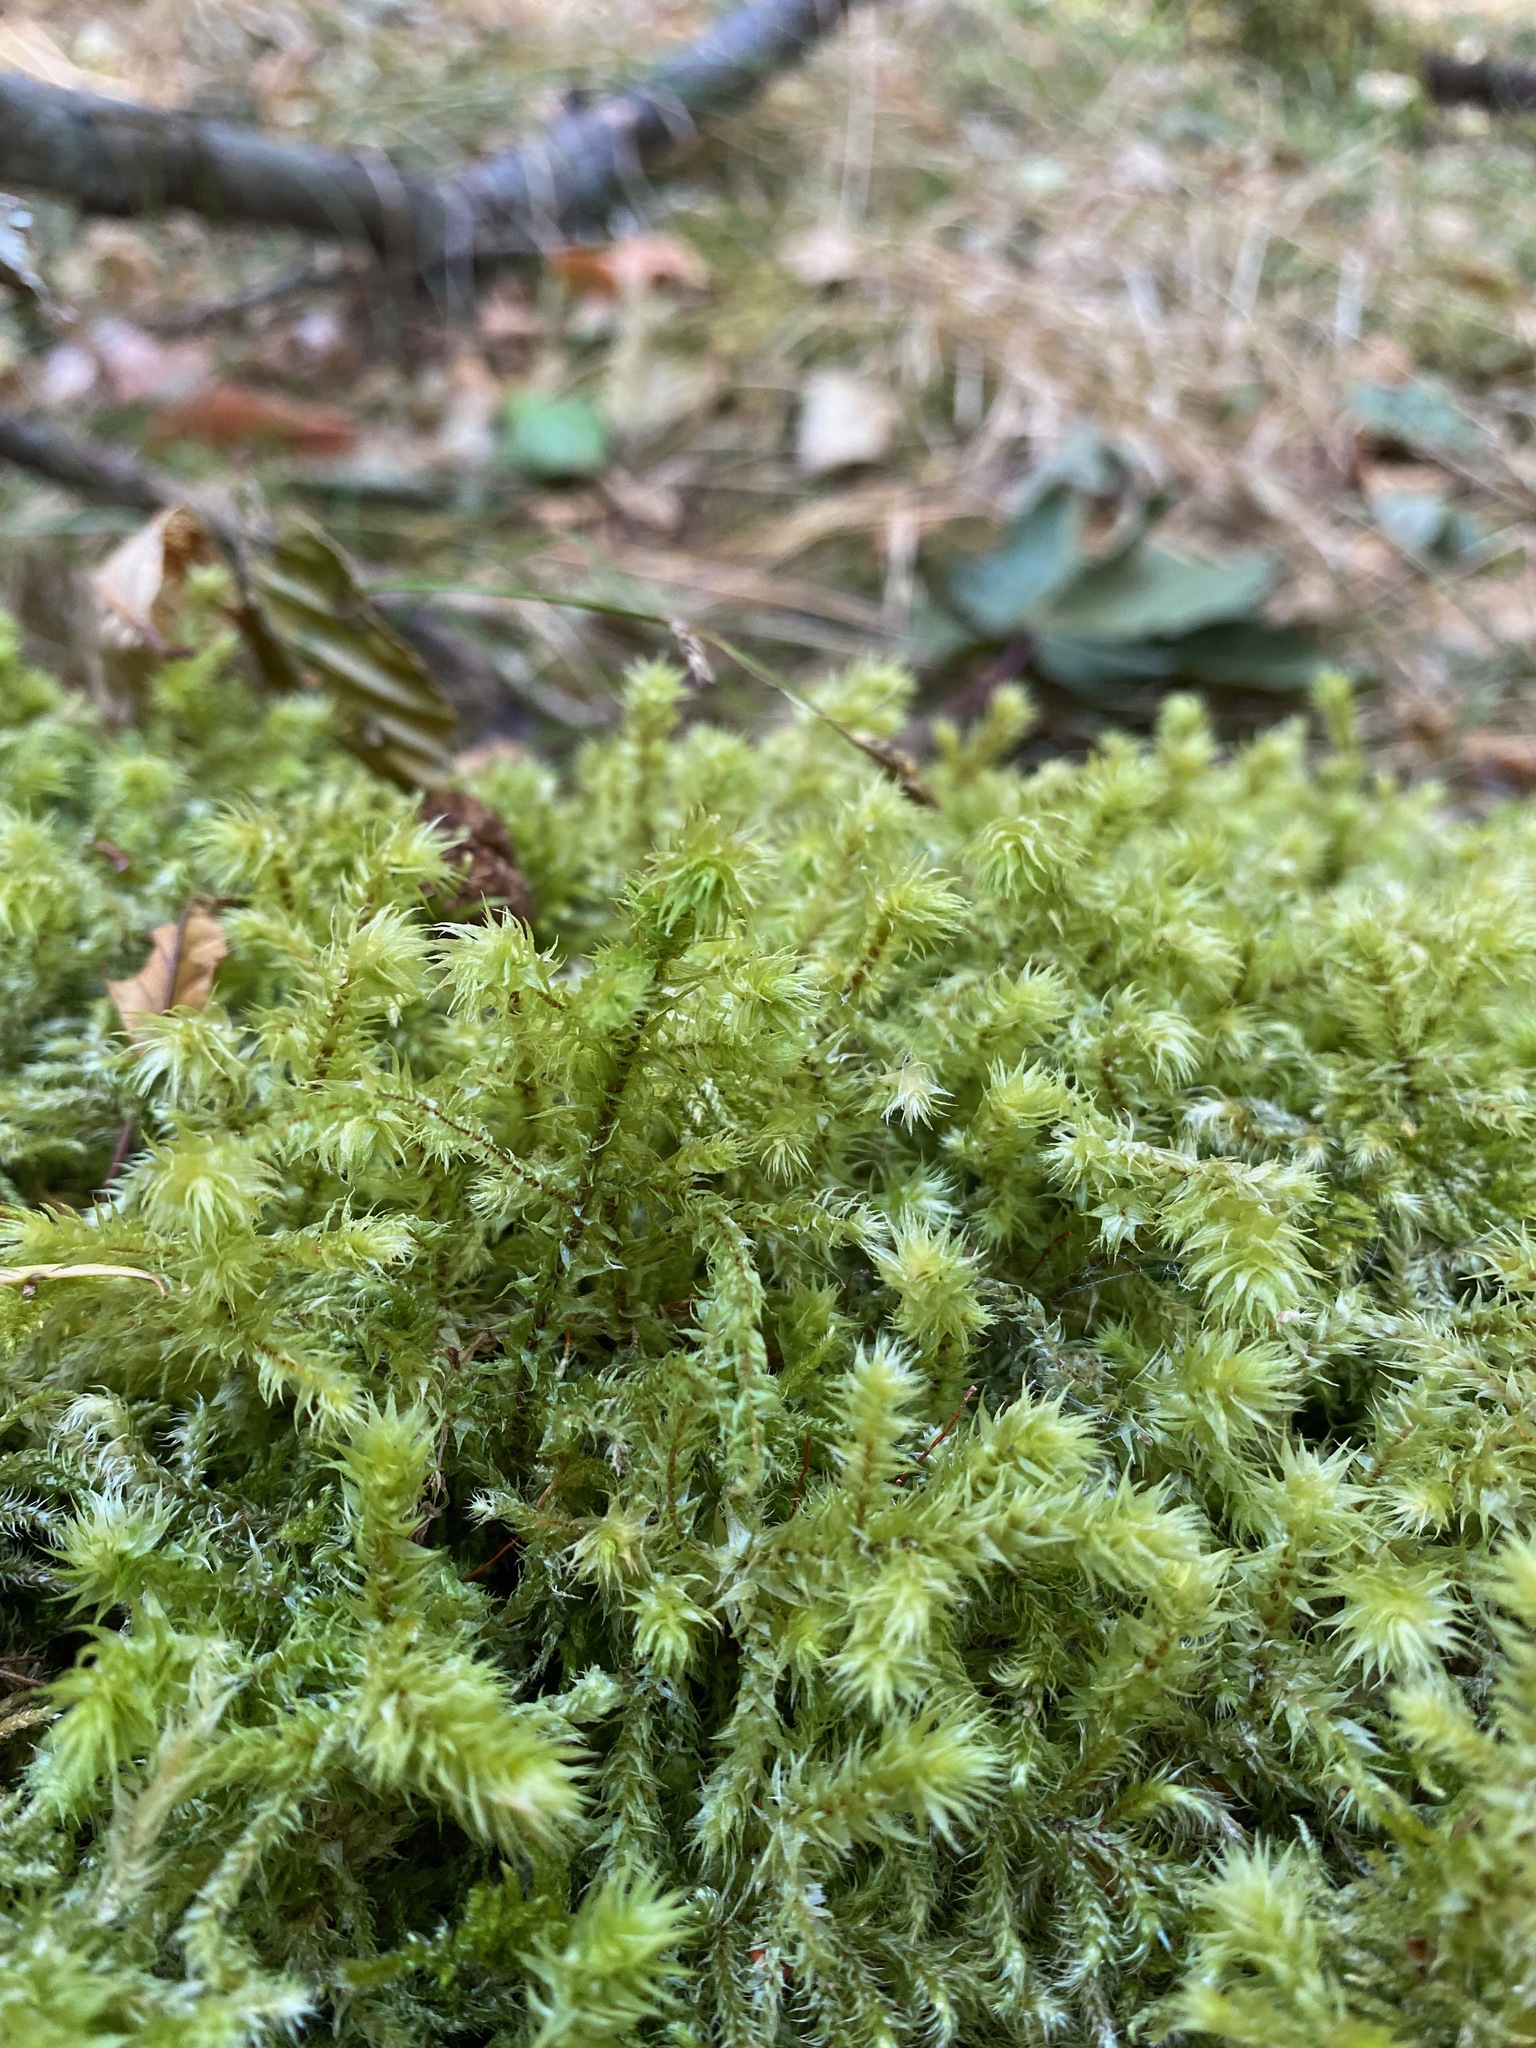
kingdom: Plantae
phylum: Bryophyta
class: Bryopsida
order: Hypnales
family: Hylocomiaceae
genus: Hylocomiadelphus
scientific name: Hylocomiadelphus triquetrus
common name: Rough goose neck moss
